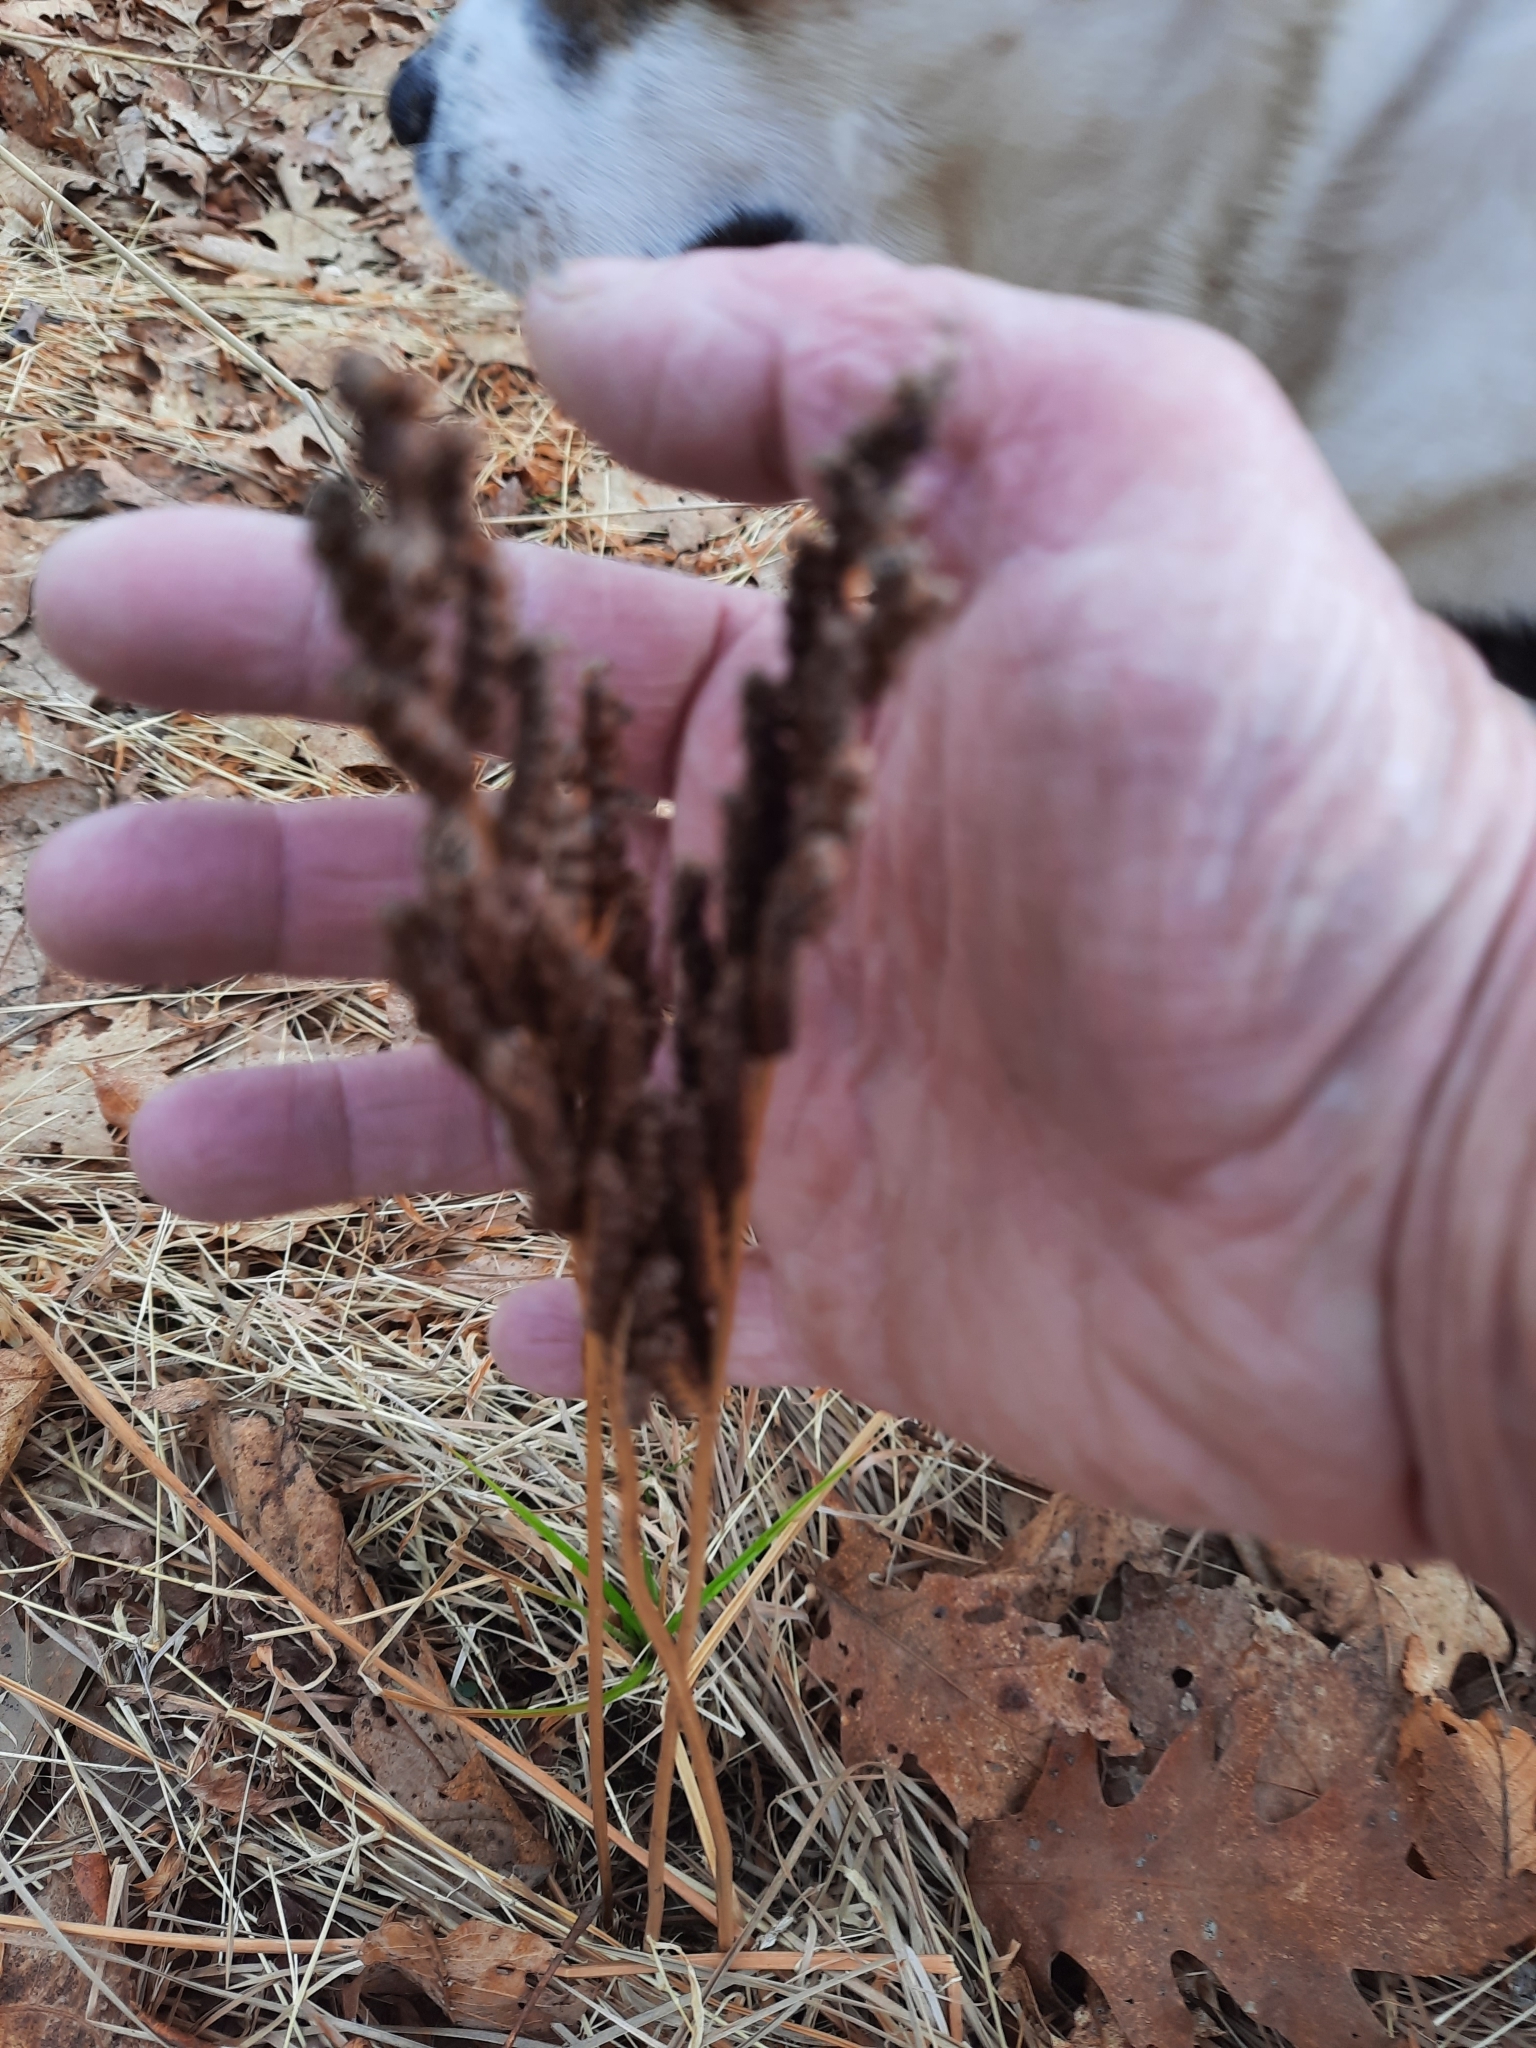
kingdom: Plantae
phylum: Tracheophyta
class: Polypodiopsida
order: Polypodiales
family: Onocleaceae
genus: Onoclea
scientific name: Onoclea sensibilis
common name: Sensitive fern
